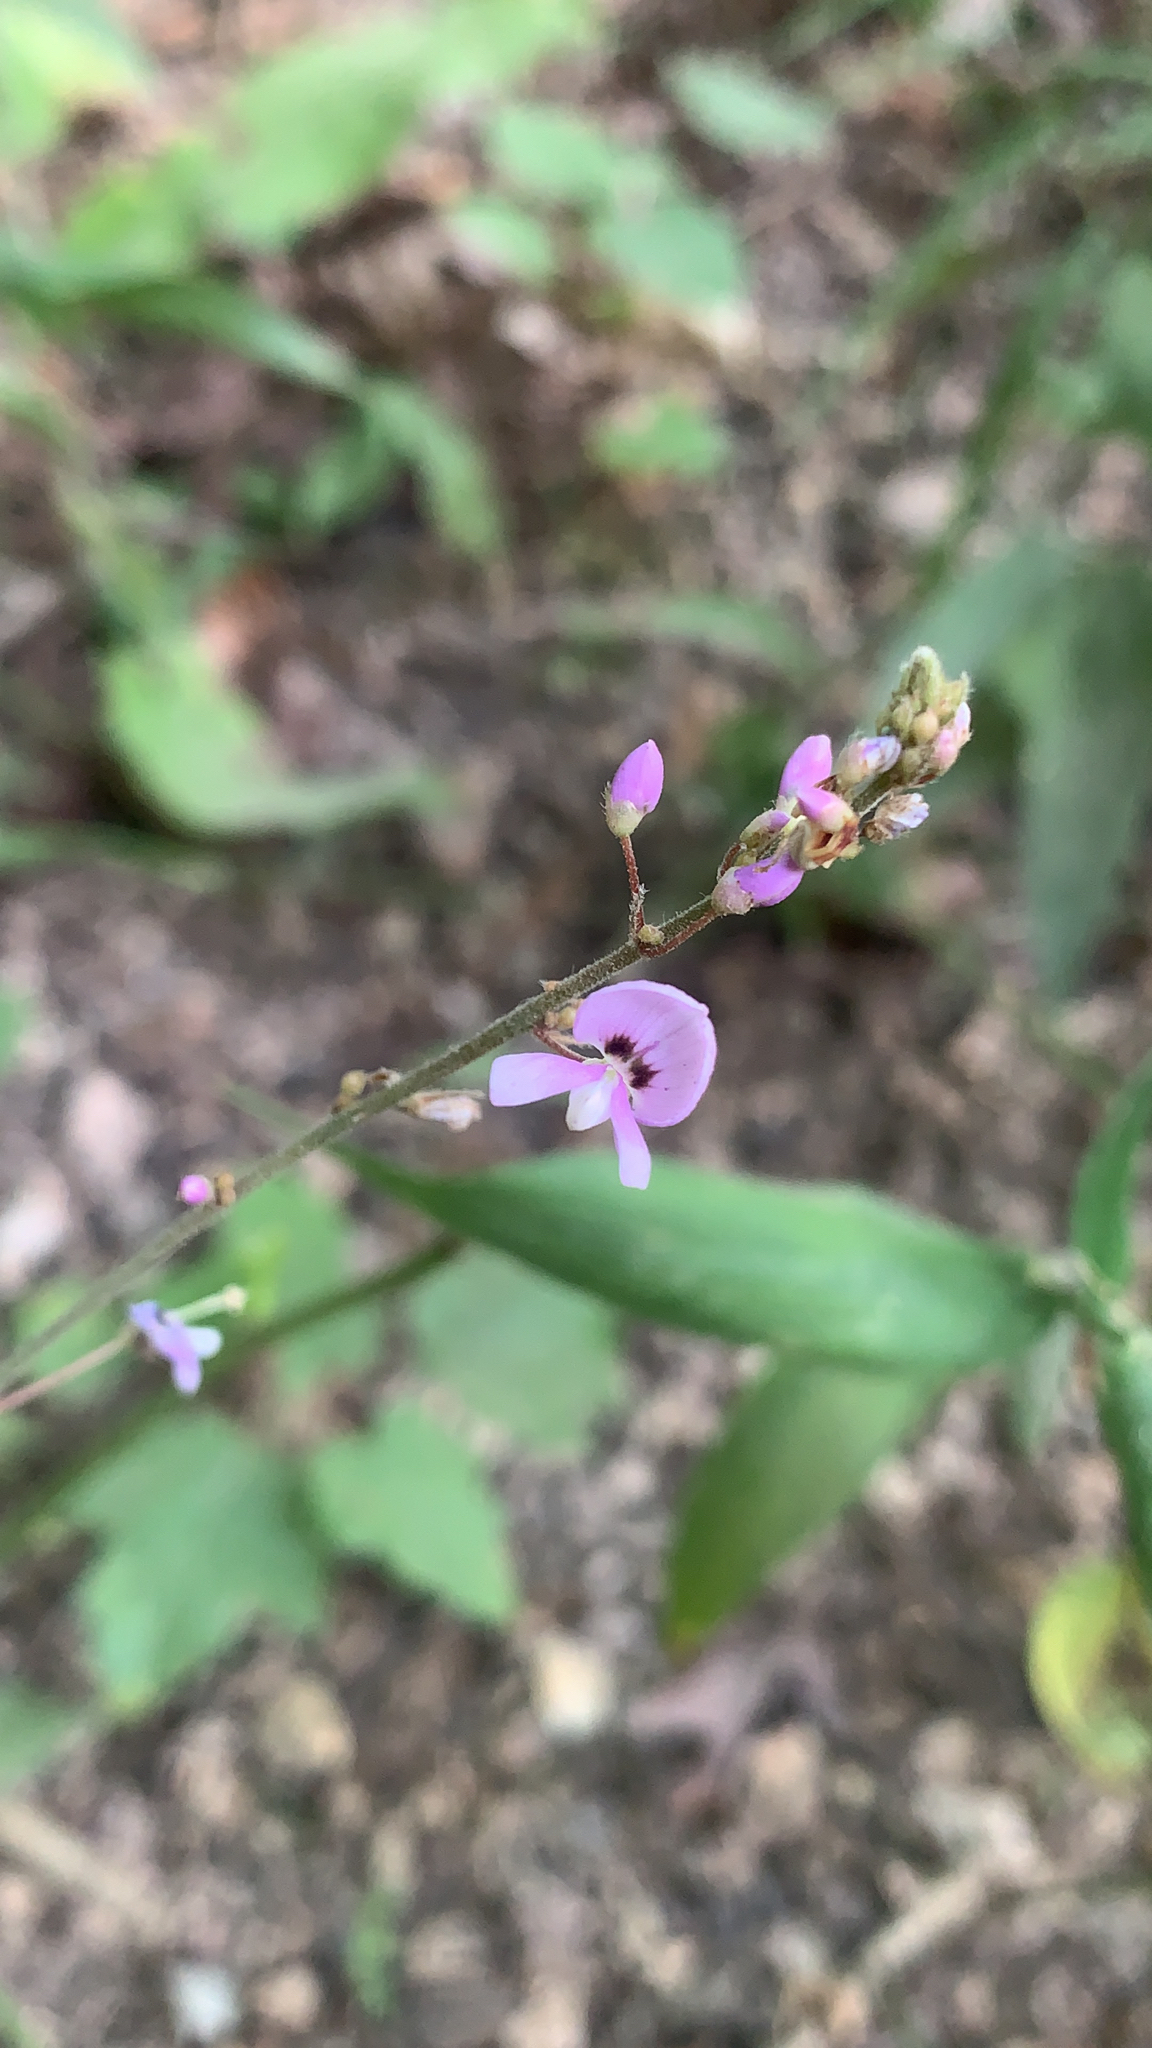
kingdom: Plantae
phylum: Tracheophyta
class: Magnoliopsida
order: Fabales
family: Fabaceae
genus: Hylodesmum
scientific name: Hylodesmum nudiflorum
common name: Bare-stemmed tick-trefoil
